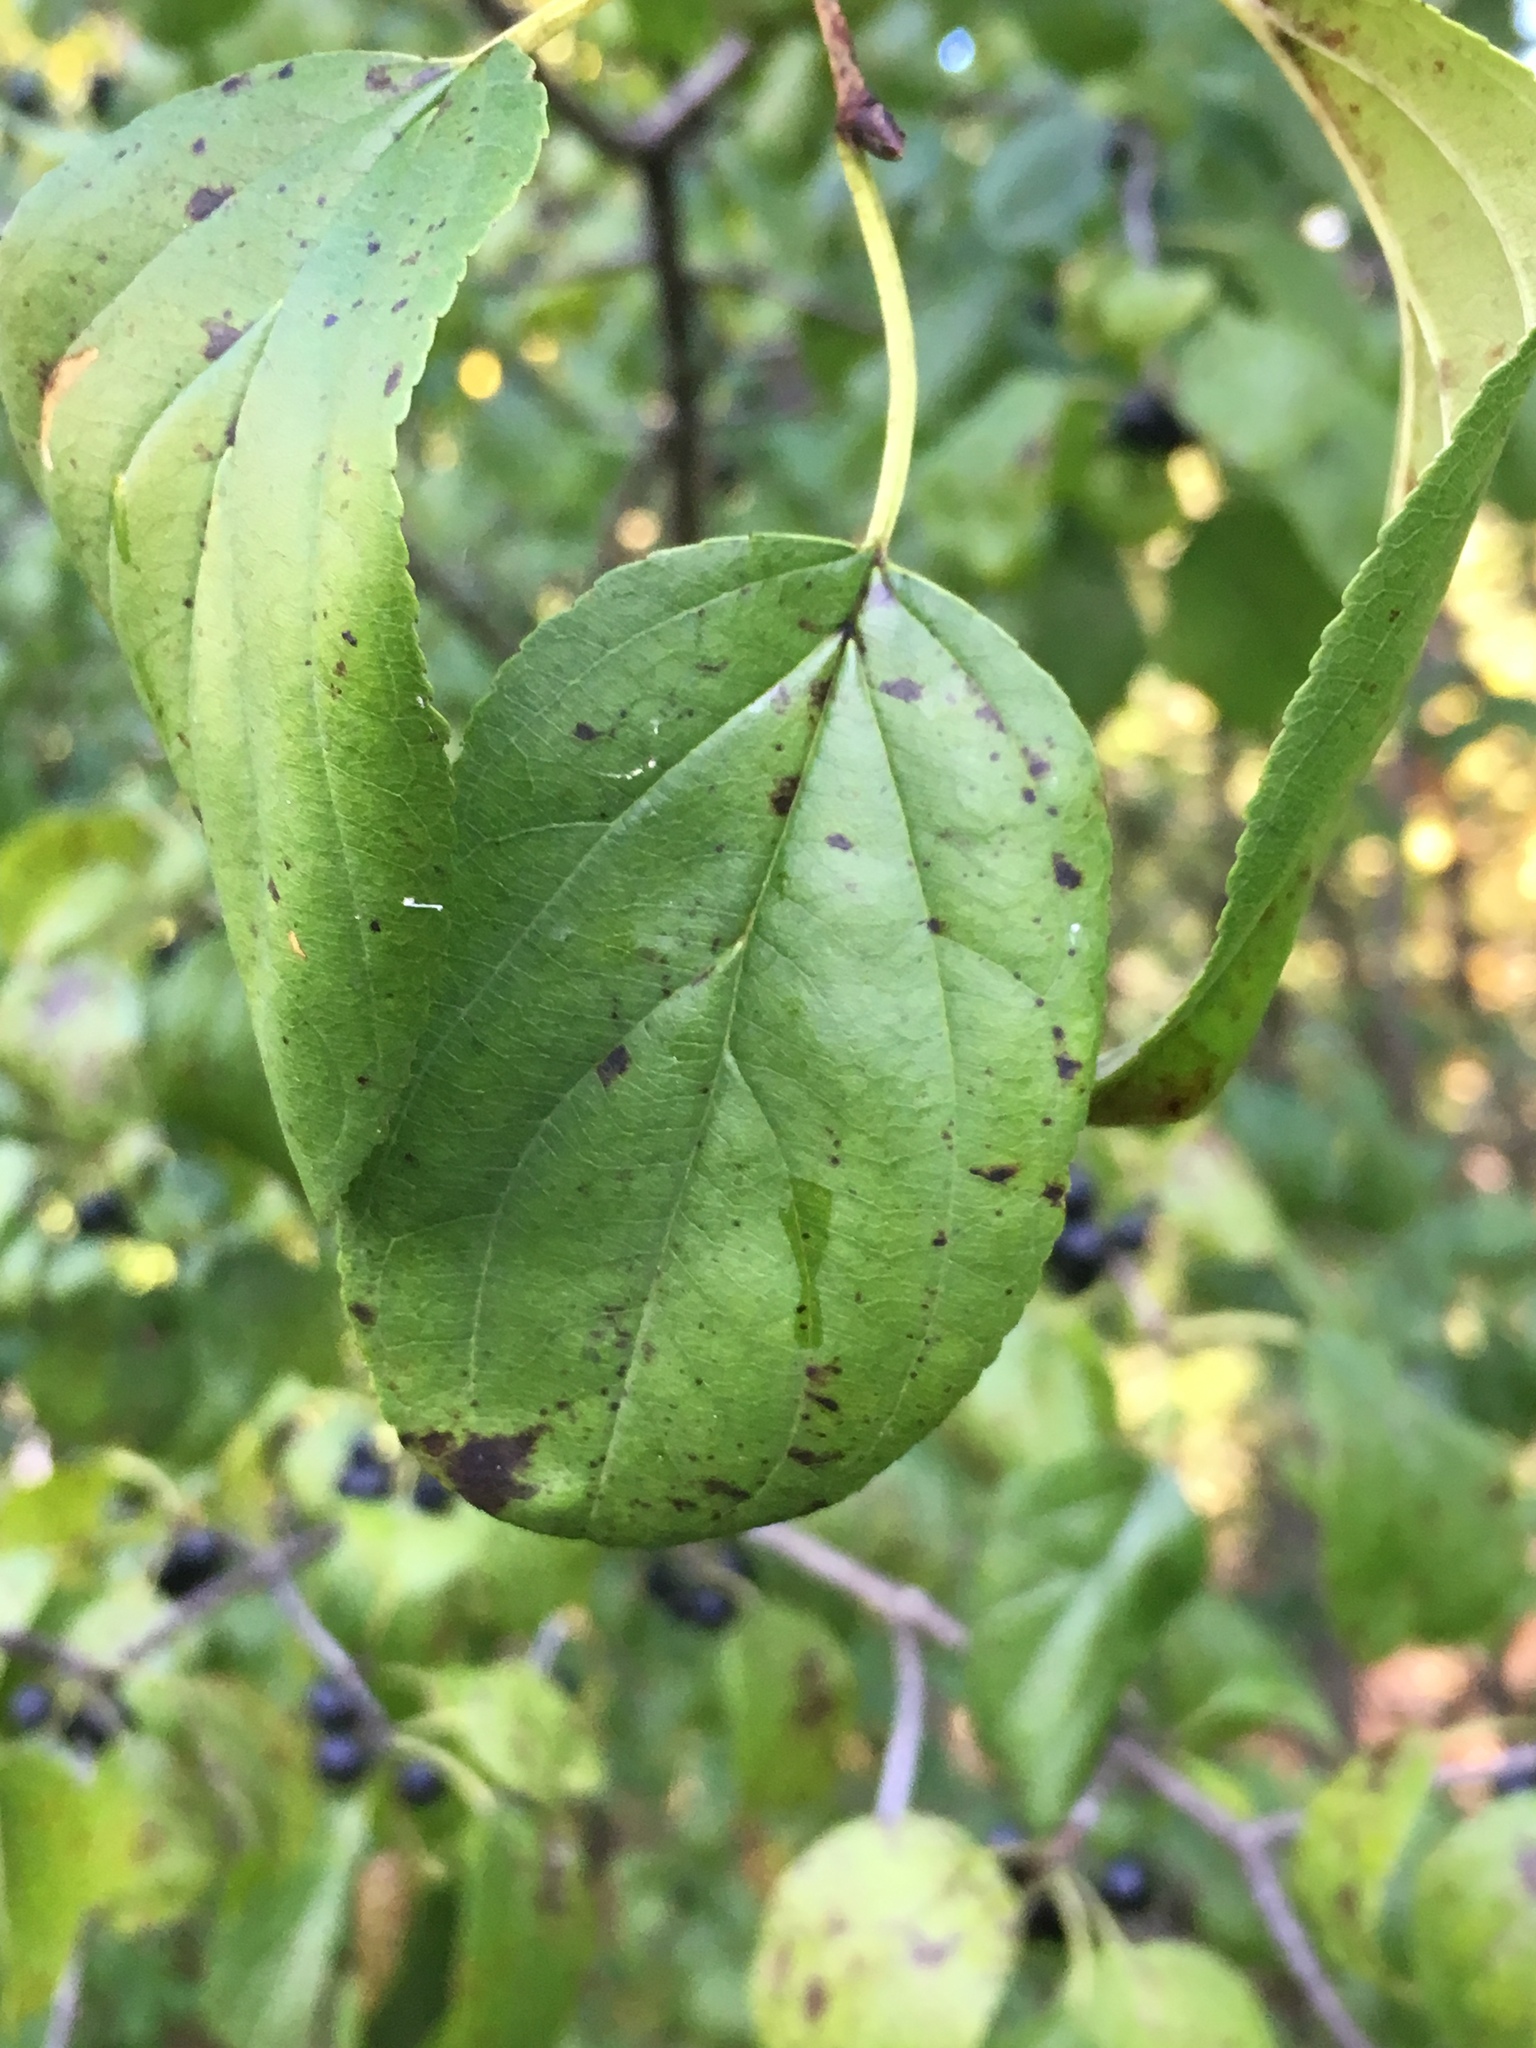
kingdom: Plantae
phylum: Tracheophyta
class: Magnoliopsida
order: Rosales
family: Rhamnaceae
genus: Rhamnus
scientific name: Rhamnus cathartica
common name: Common buckthorn
